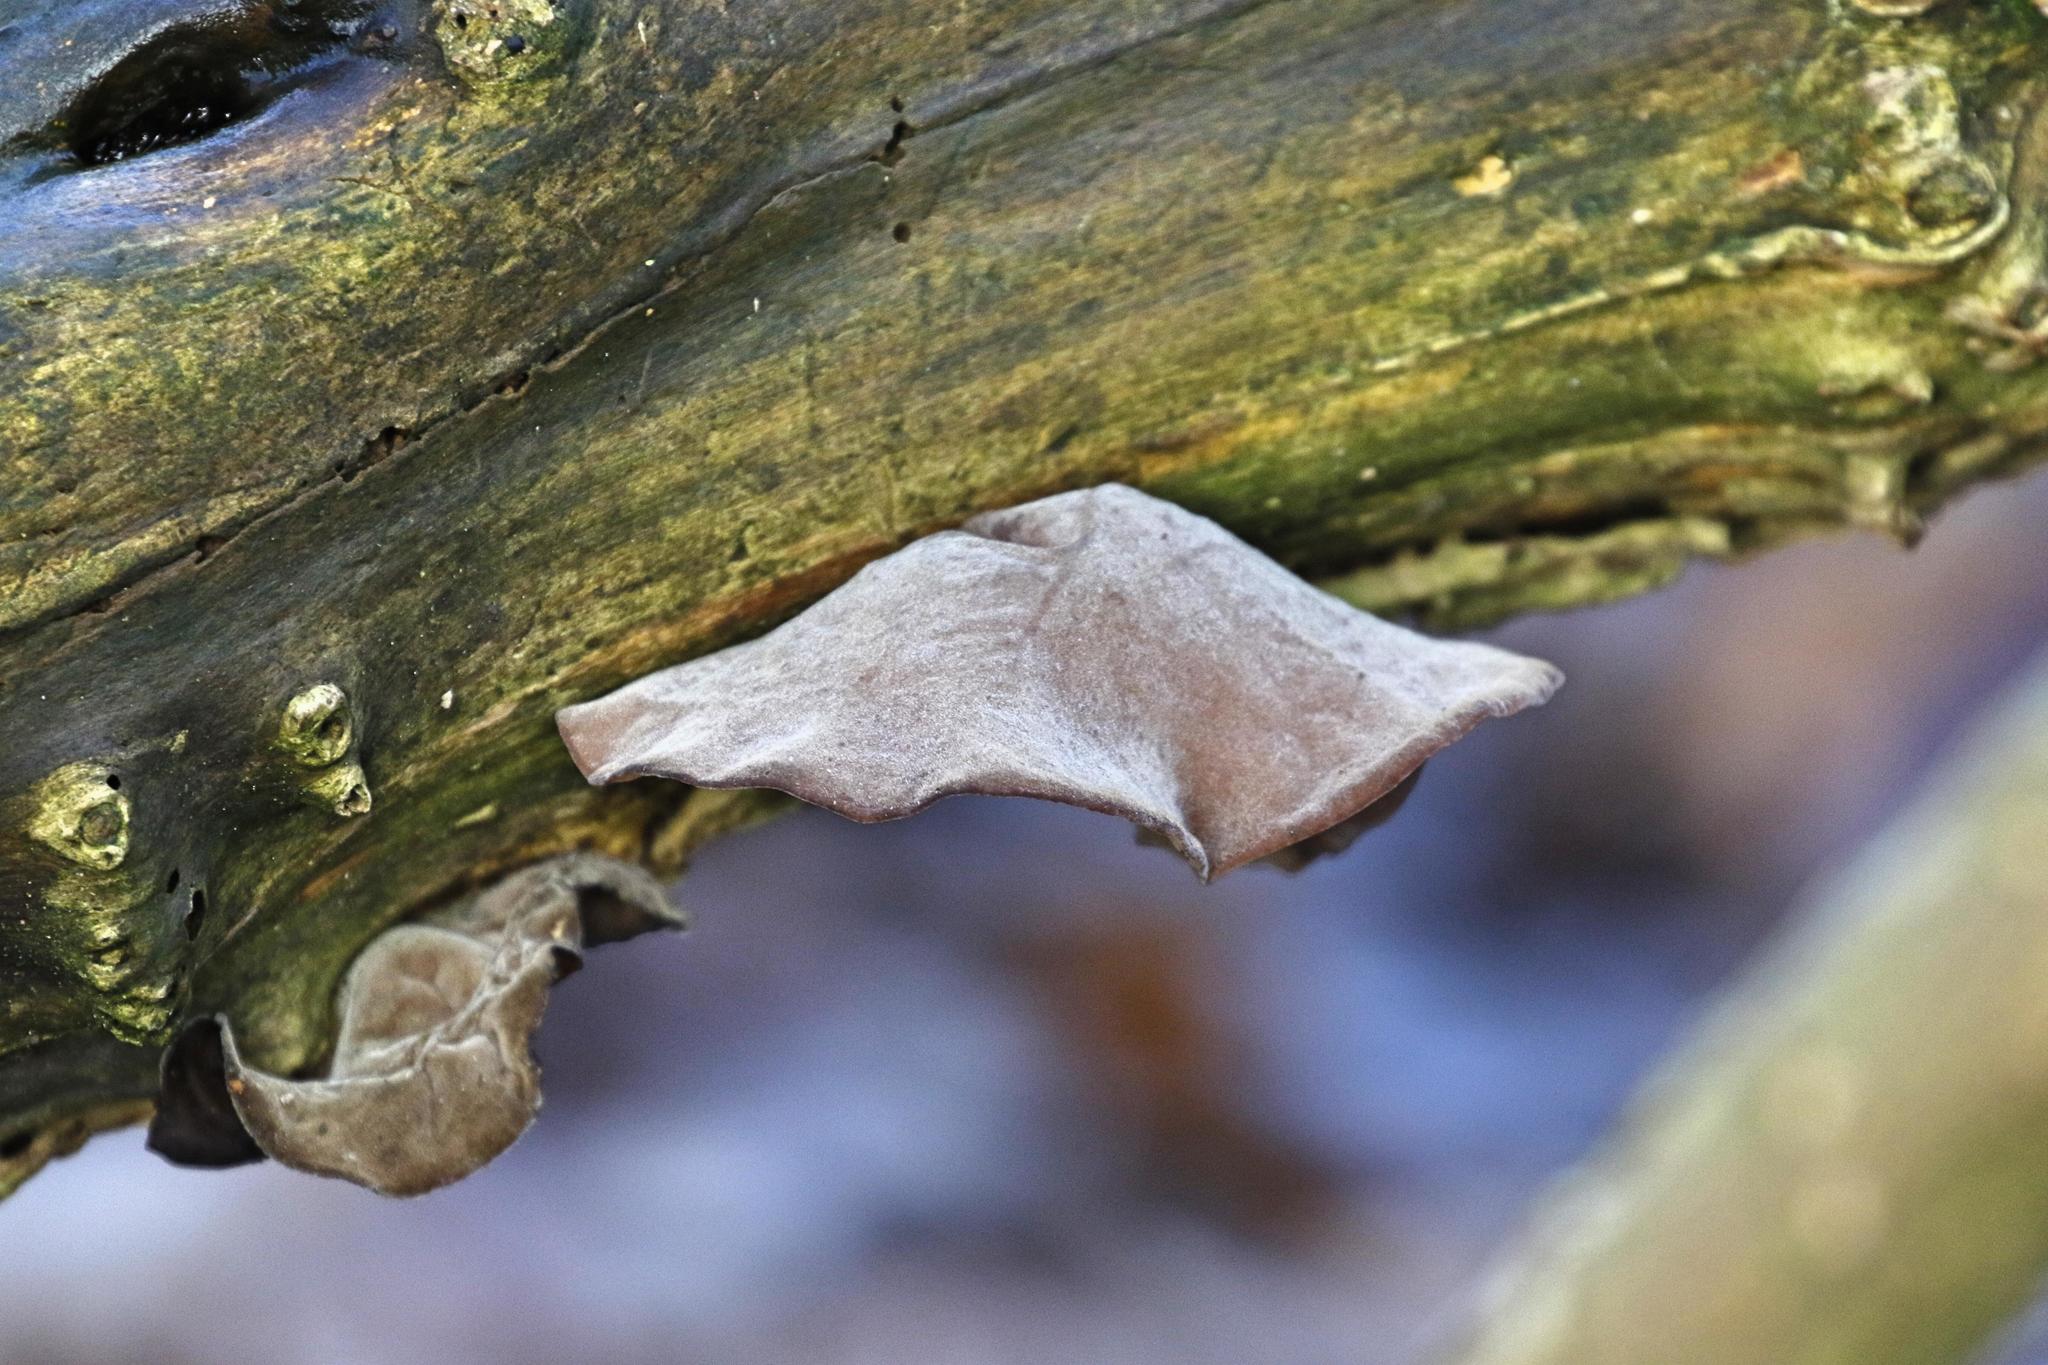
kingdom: Fungi
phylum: Basidiomycota
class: Agaricomycetes
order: Auriculariales
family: Auriculariaceae
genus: Auricularia
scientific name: Auricularia auricula-judae
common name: Jelly ear
